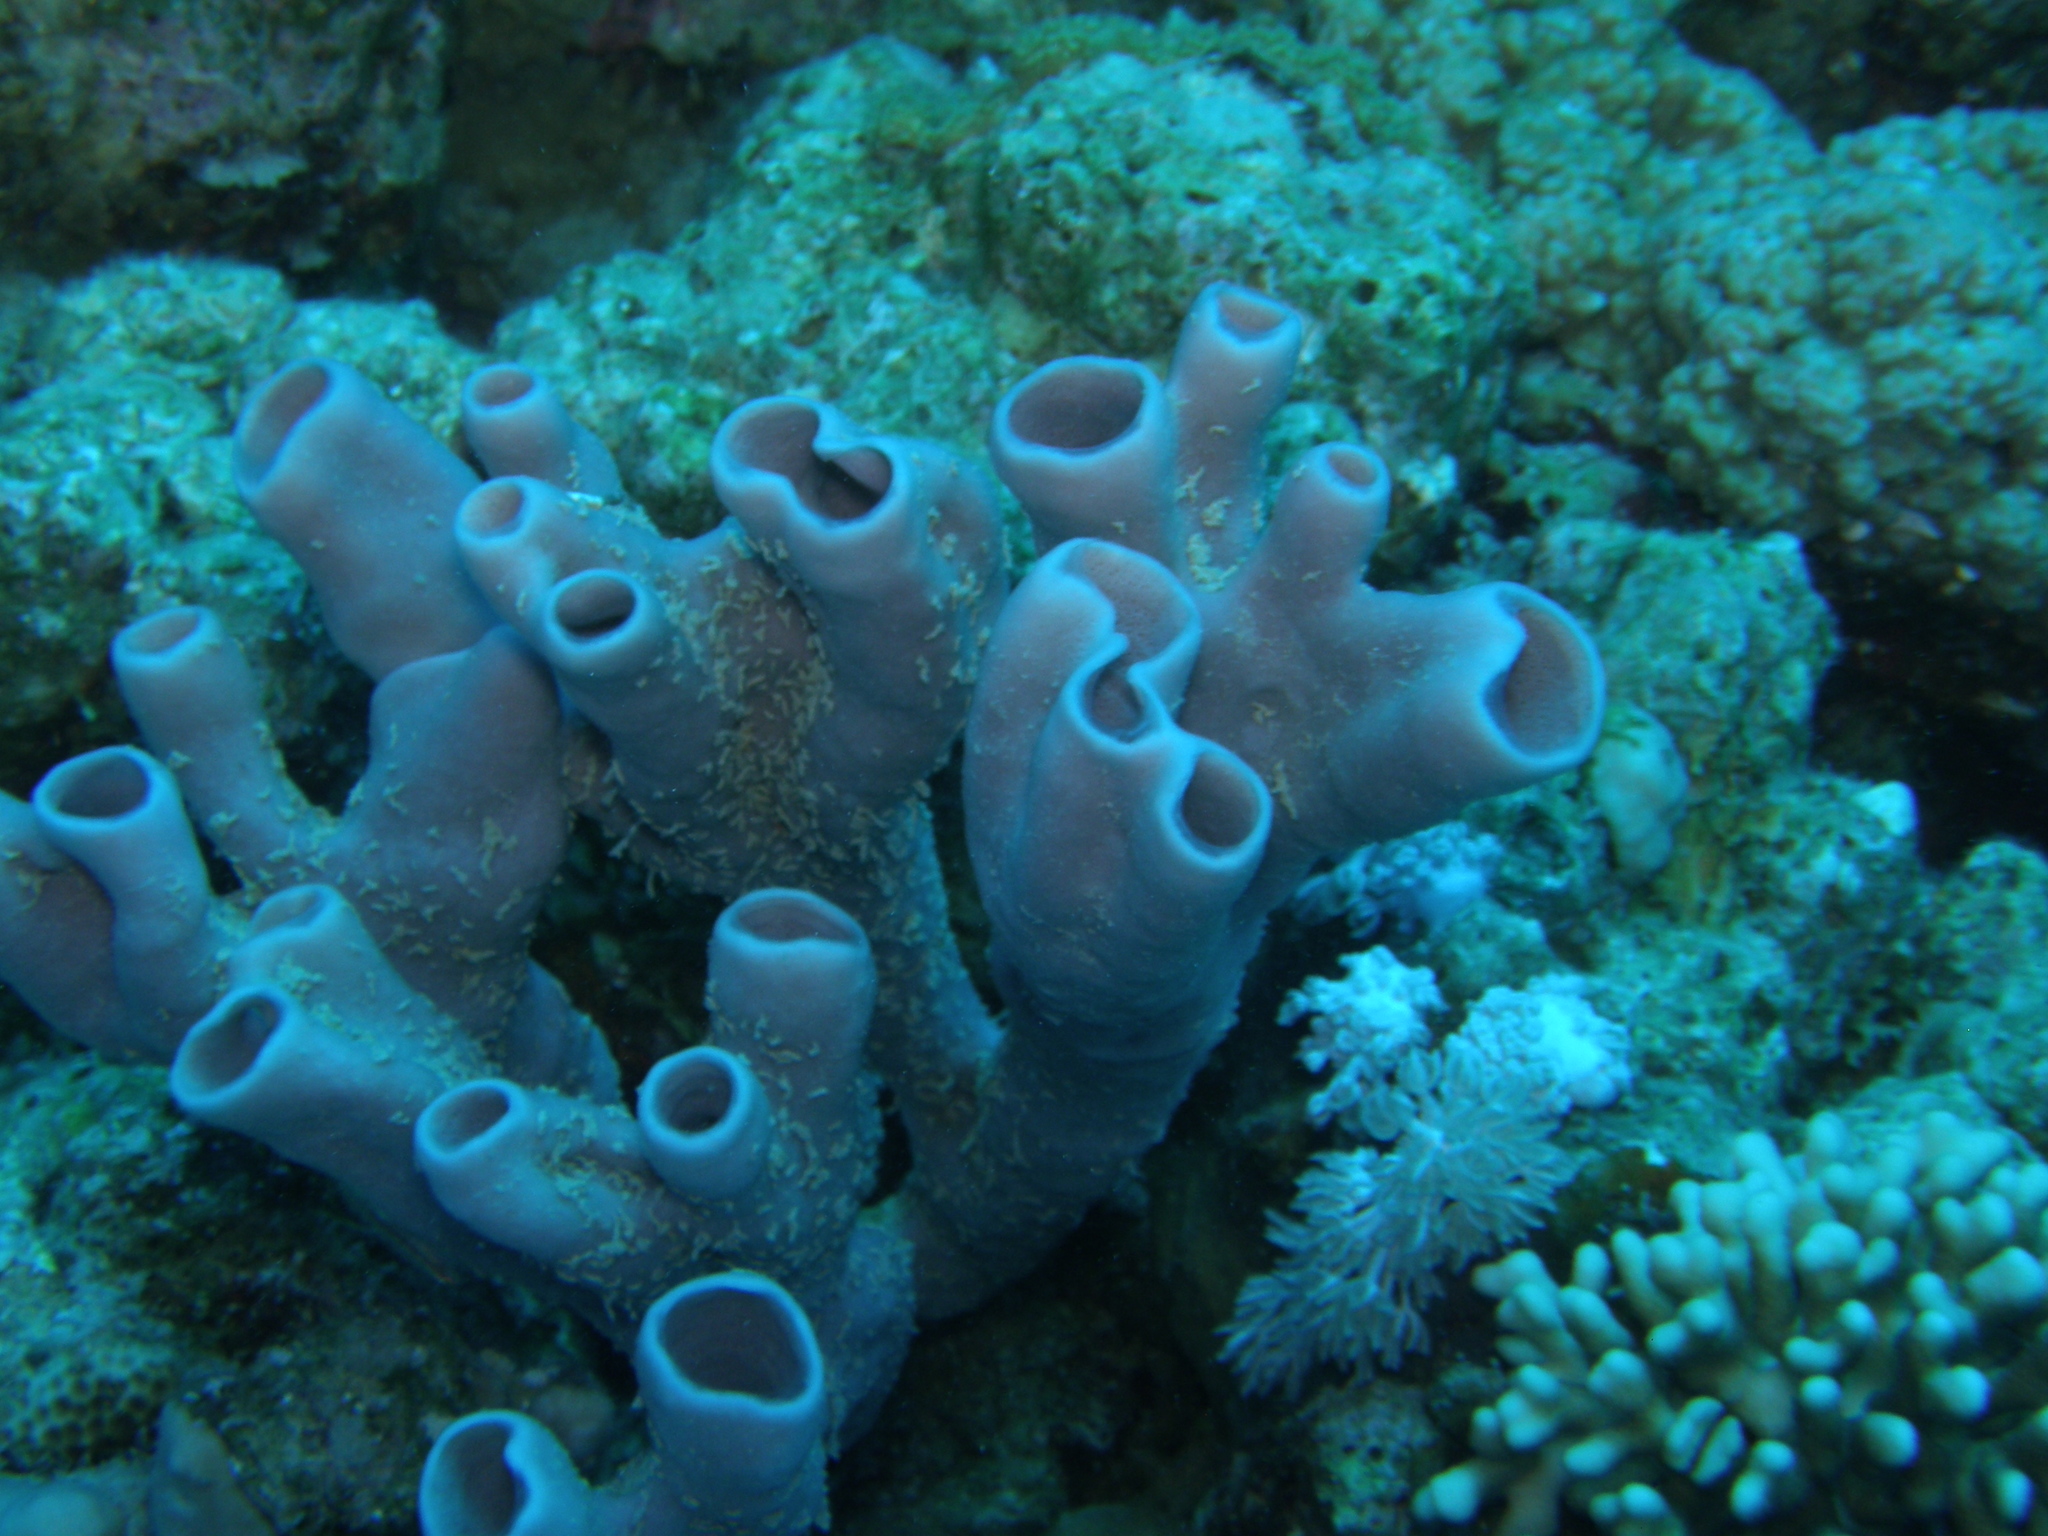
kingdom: Animalia
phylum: Porifera
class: Demospongiae
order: Haplosclerida
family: Callyspongiidae
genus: Callyspongia
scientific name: Callyspongia siphonella
